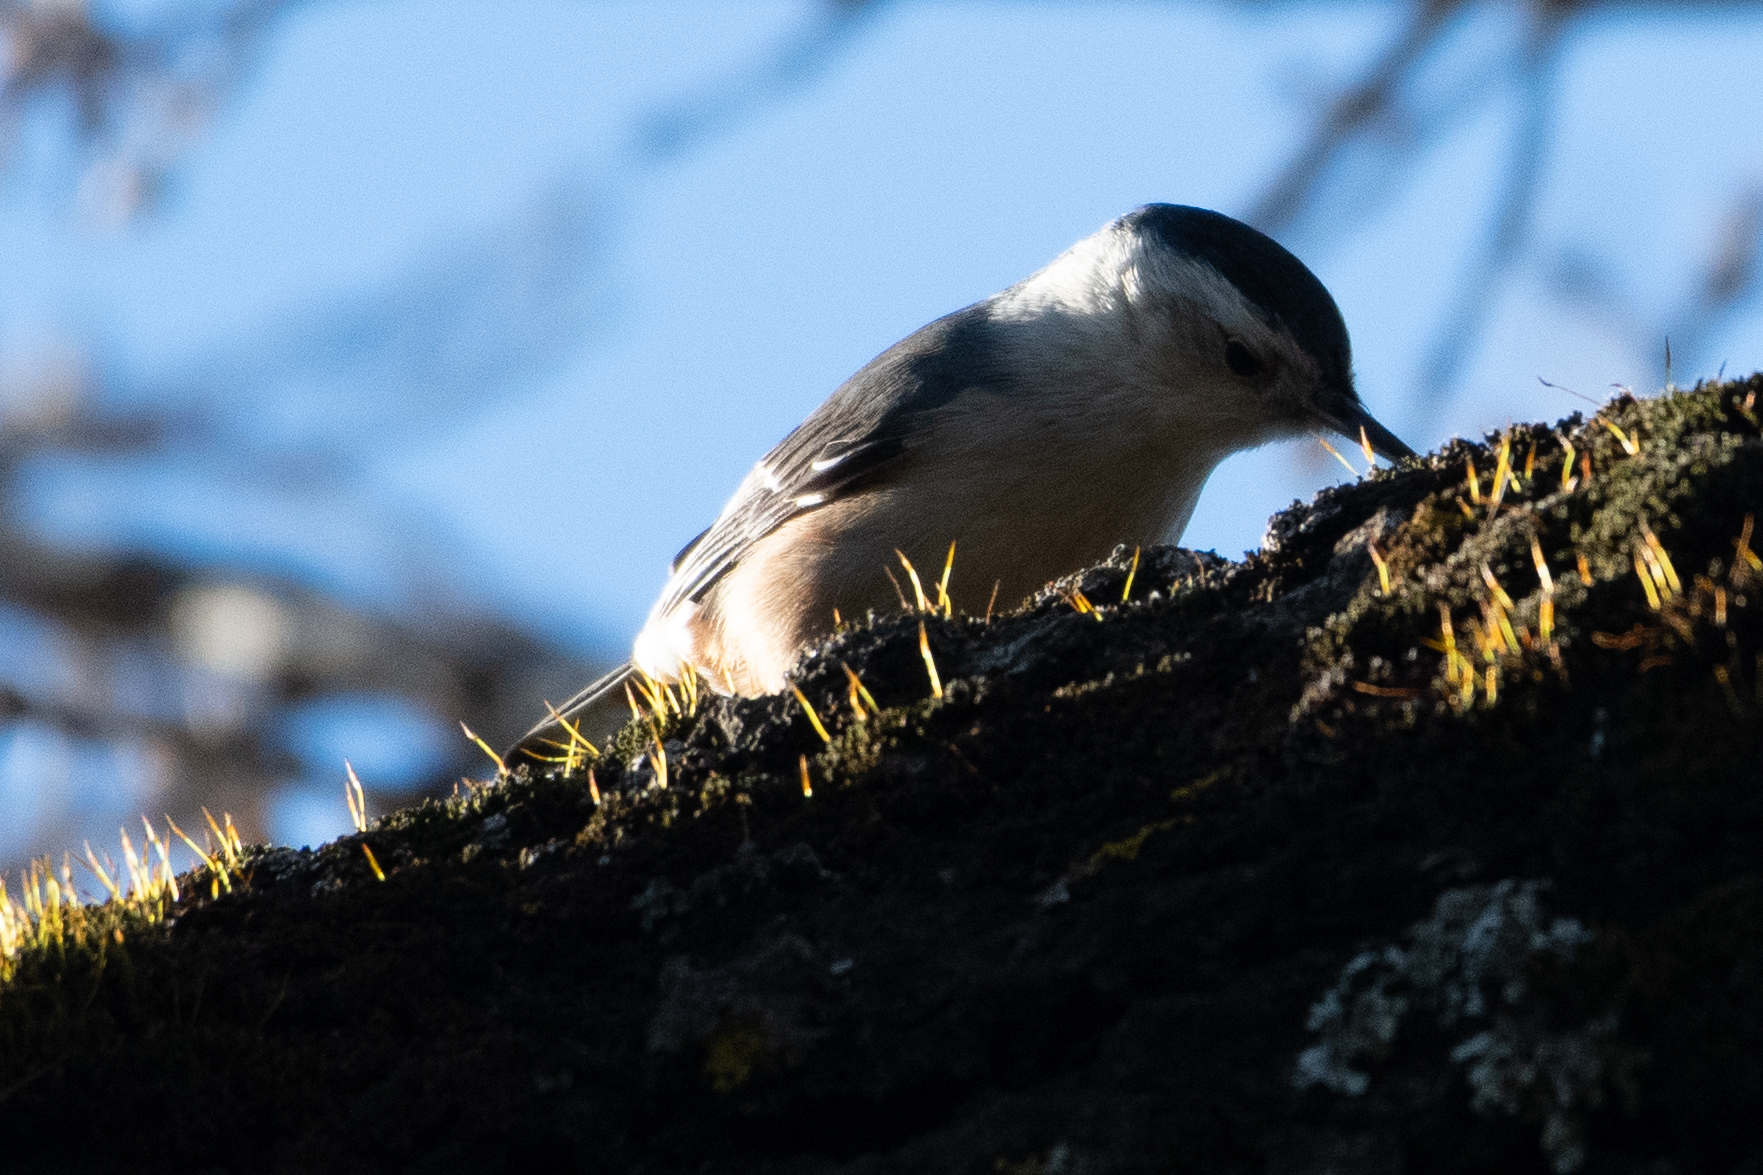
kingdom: Animalia
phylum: Chordata
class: Aves
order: Passeriformes
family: Sittidae
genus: Sitta
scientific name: Sitta carolinensis
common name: White-breasted nuthatch
